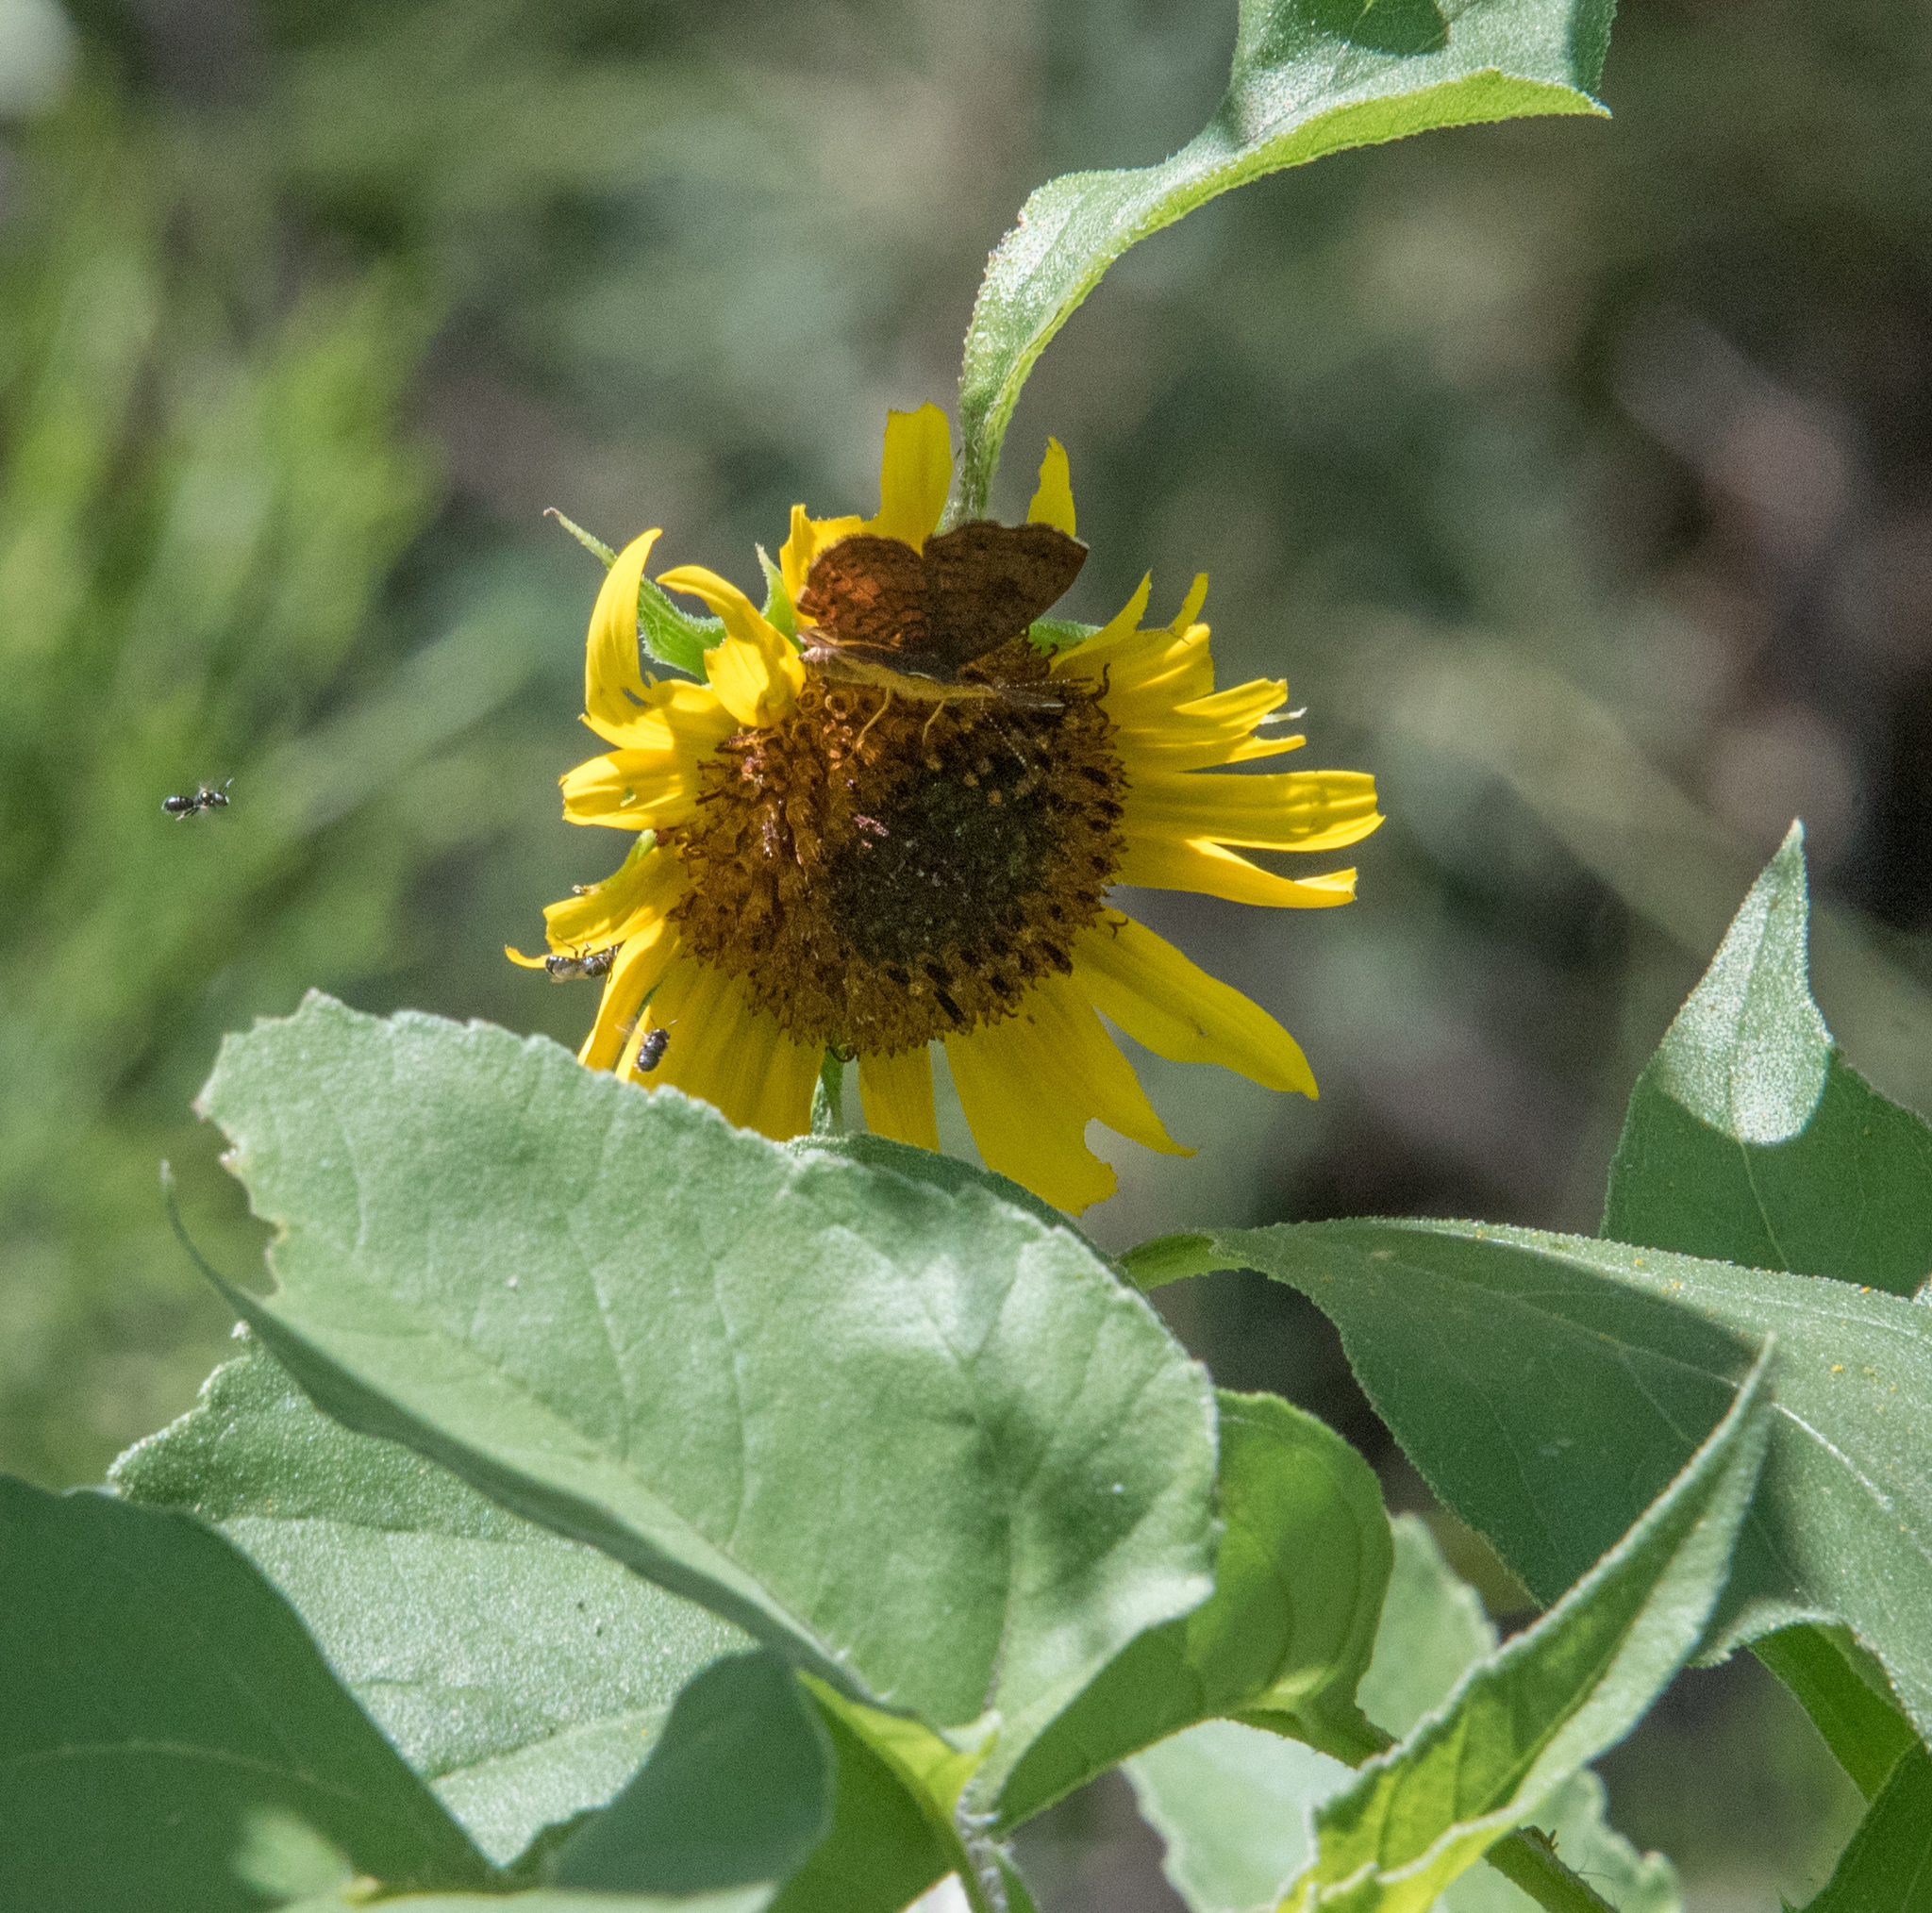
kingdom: Plantae
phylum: Tracheophyta
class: Magnoliopsida
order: Asterales
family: Asteraceae
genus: Helianthus
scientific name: Helianthus annuus
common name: Sunflower
